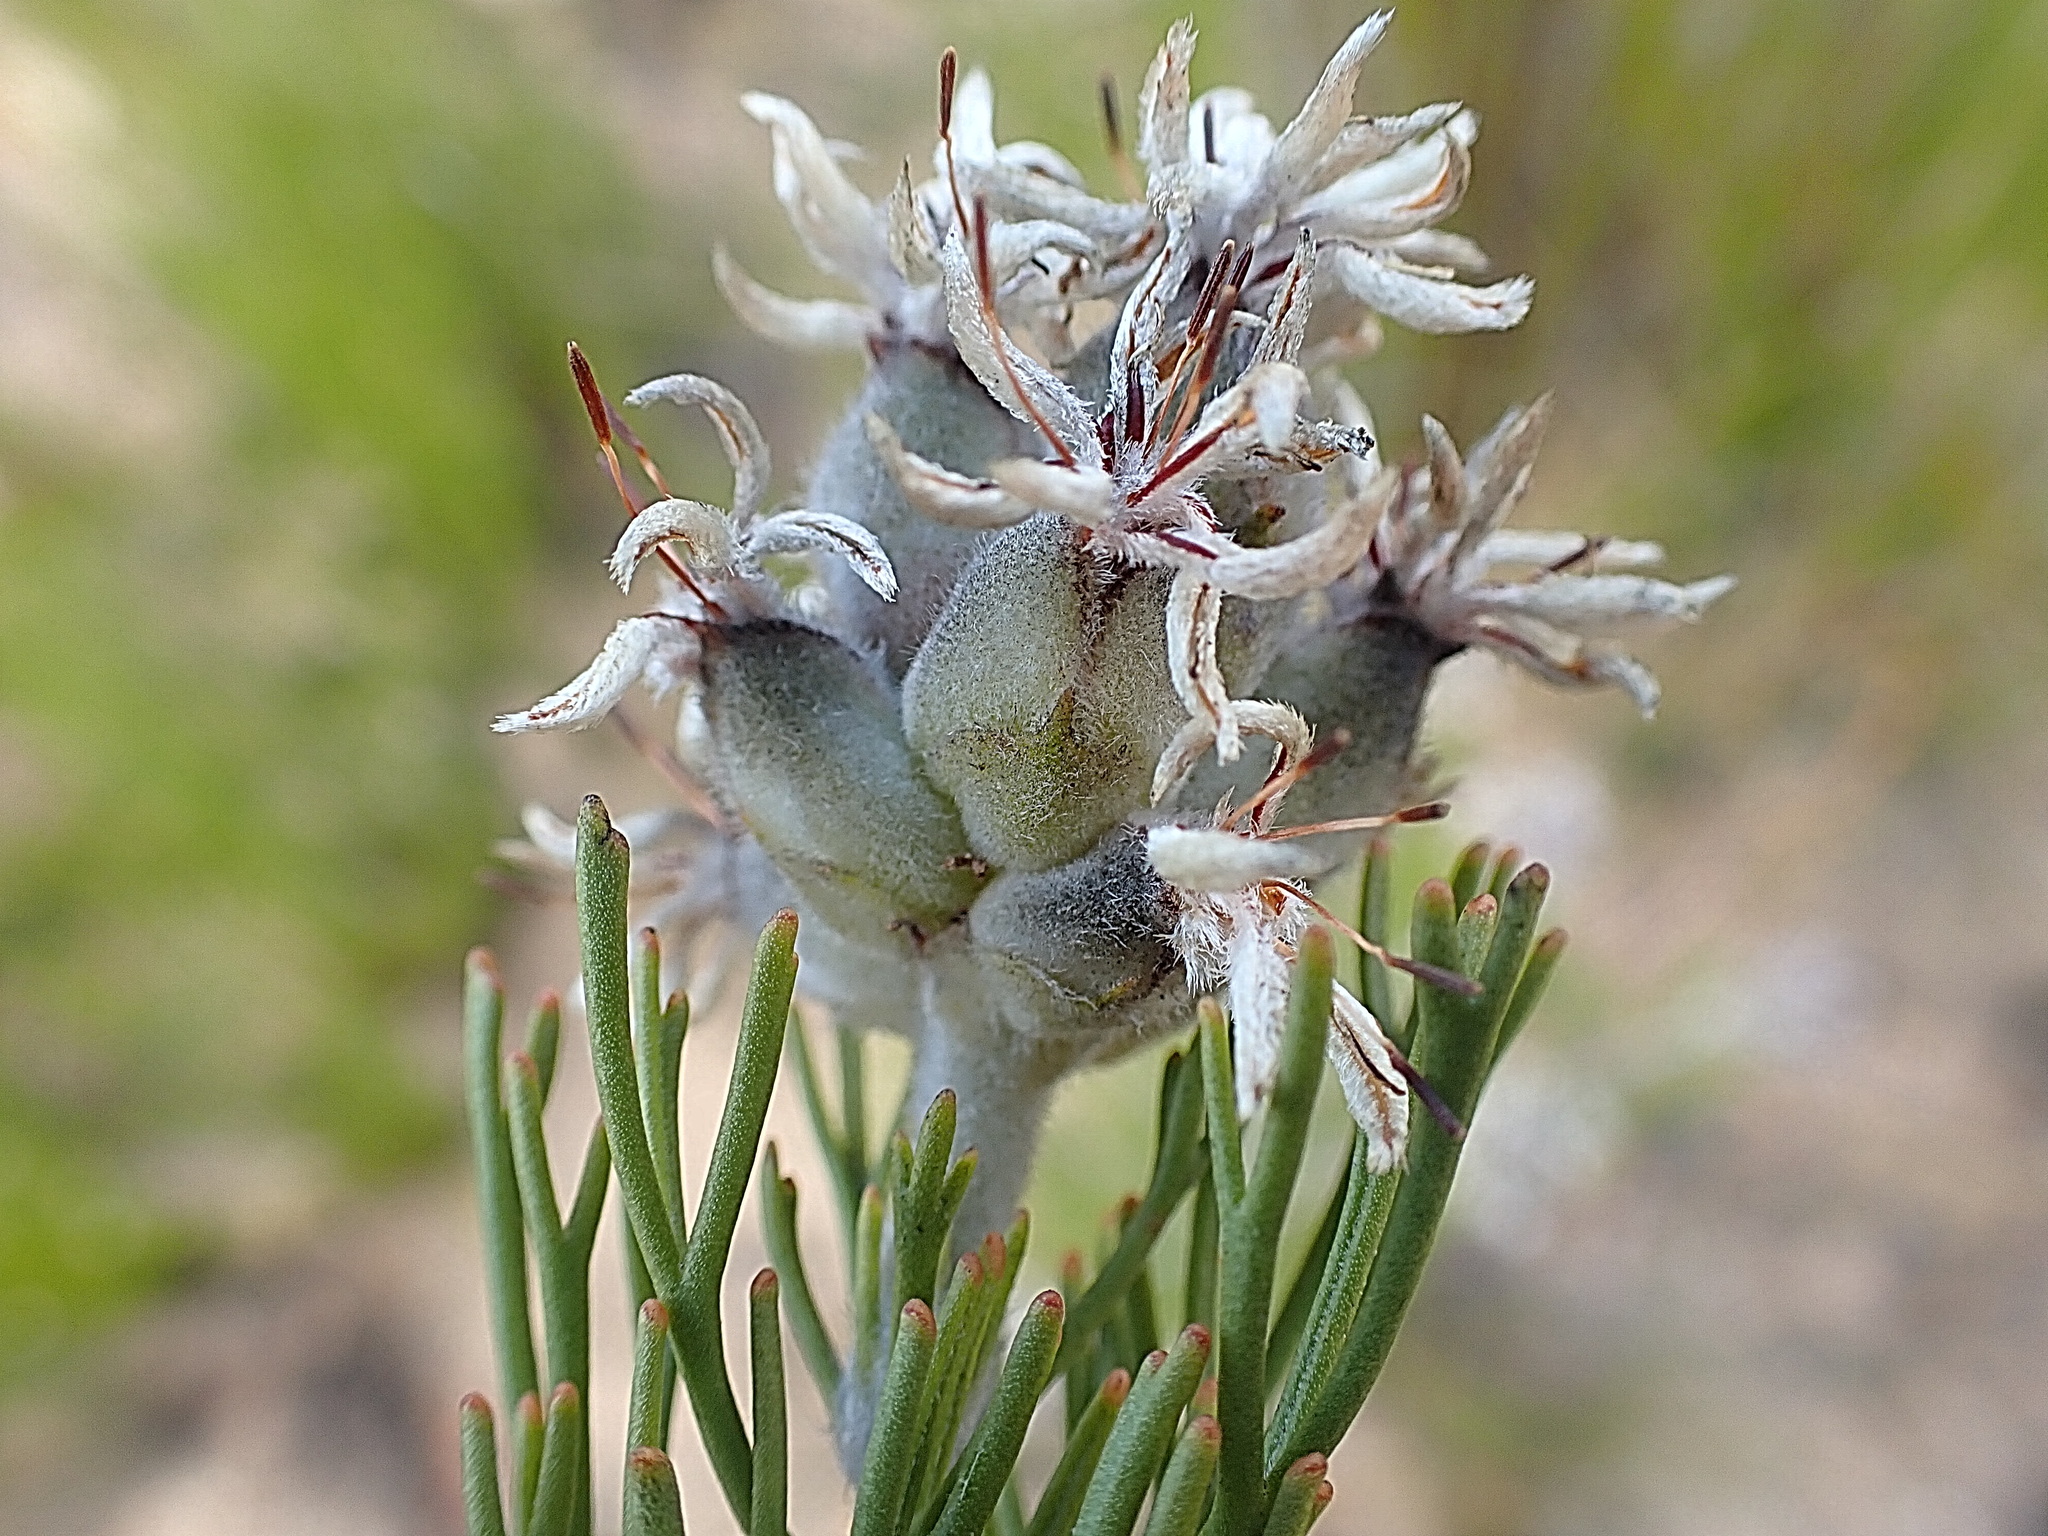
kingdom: Plantae
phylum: Tracheophyta
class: Magnoliopsida
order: Proteales
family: Proteaceae
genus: Paranomus
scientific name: Paranomus dregei
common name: Scented sceptre
